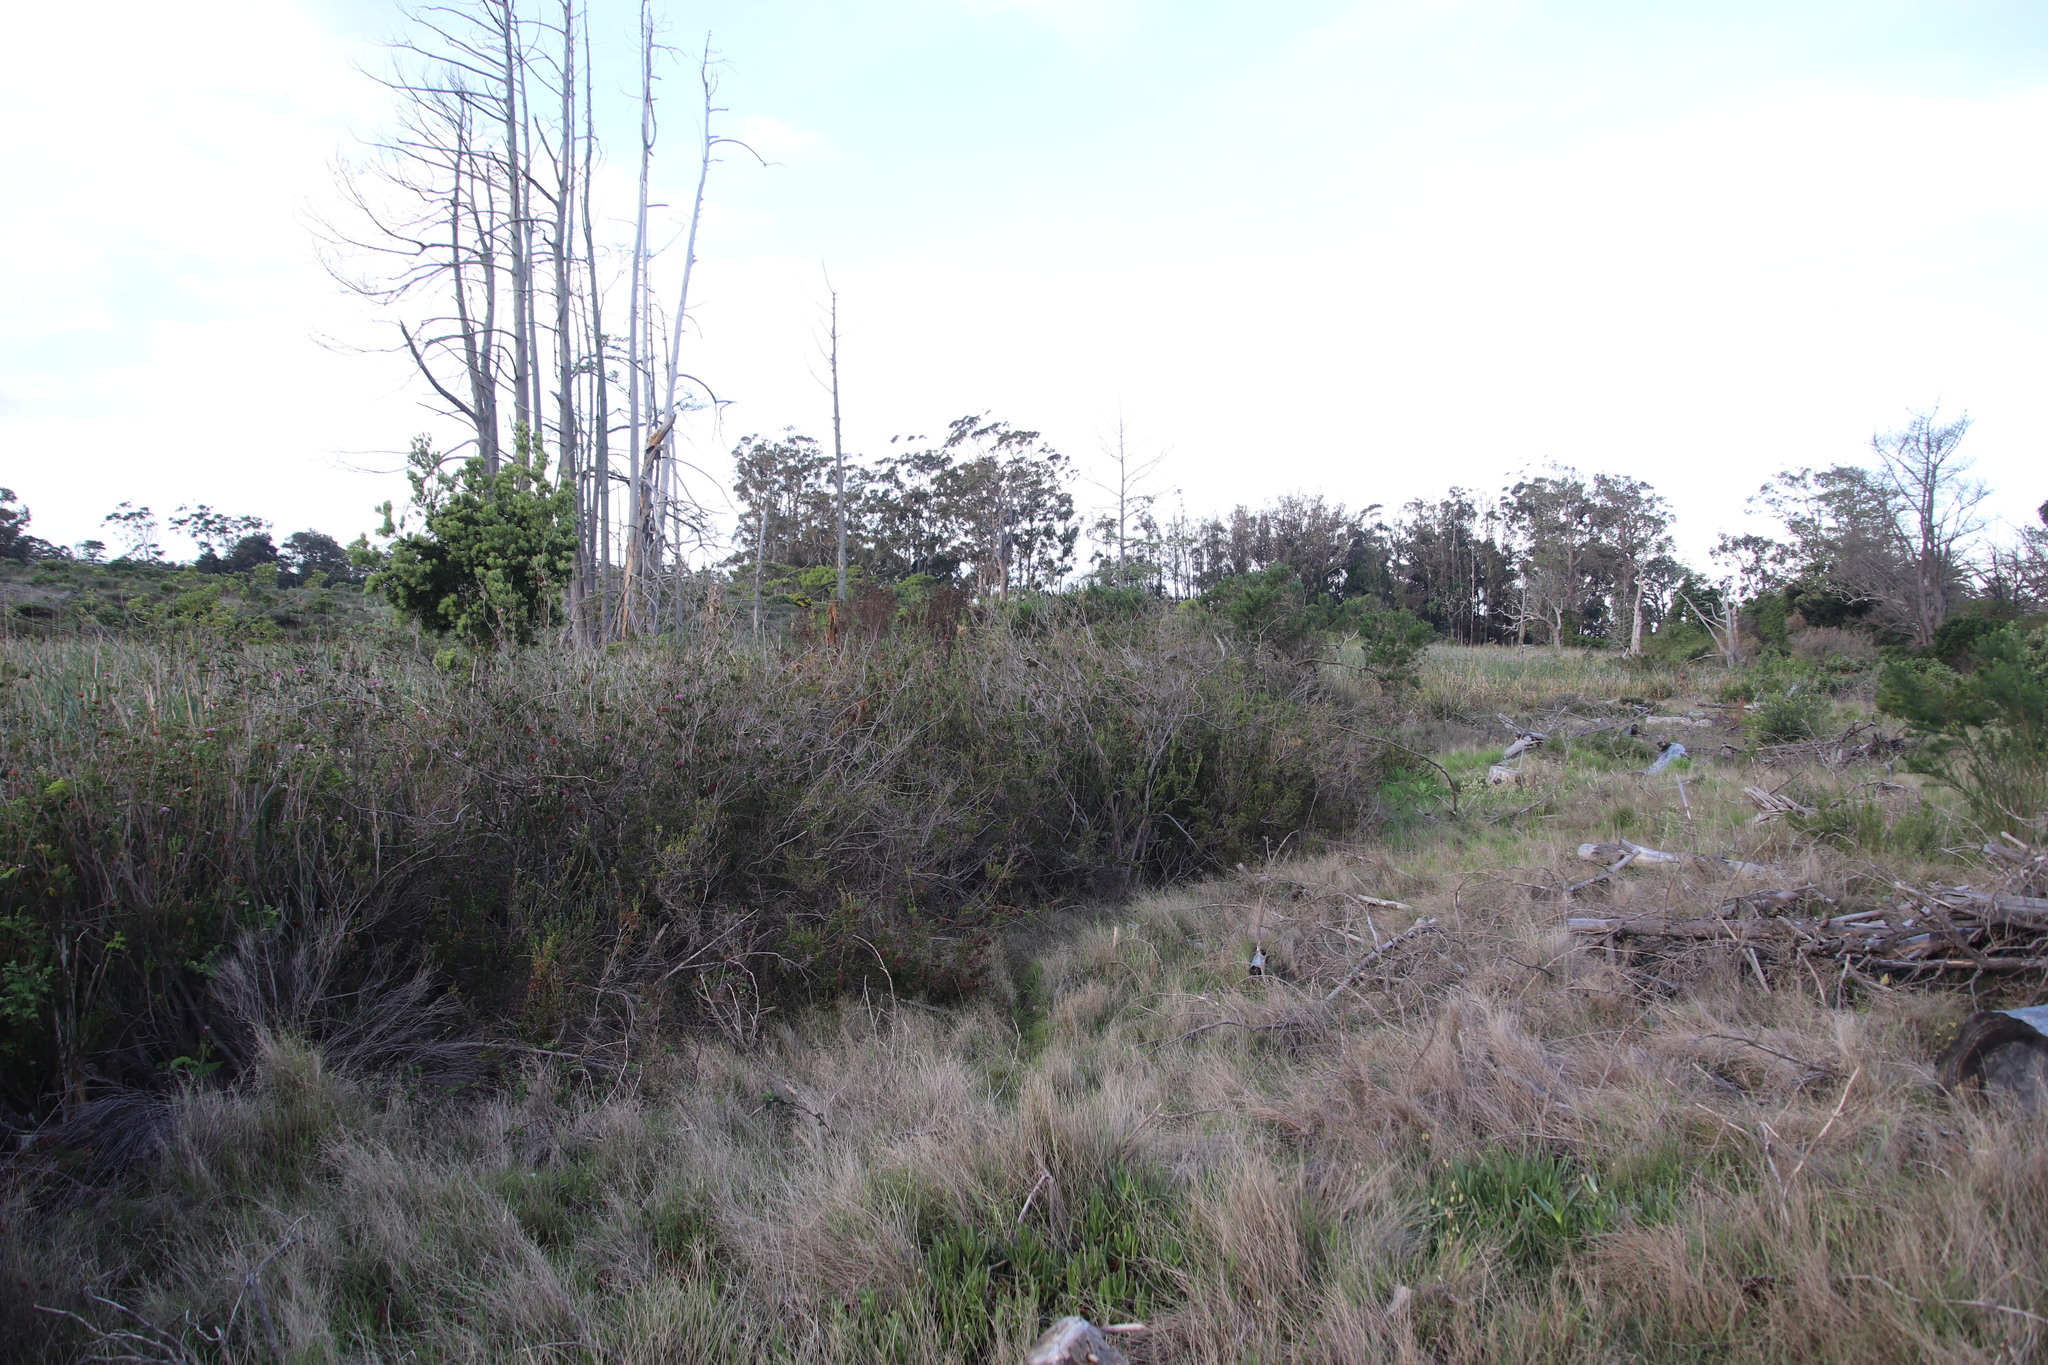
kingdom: Plantae
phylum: Tracheophyta
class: Magnoliopsida
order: Ericales
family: Ericaceae
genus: Erica
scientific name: Erica verticillata
